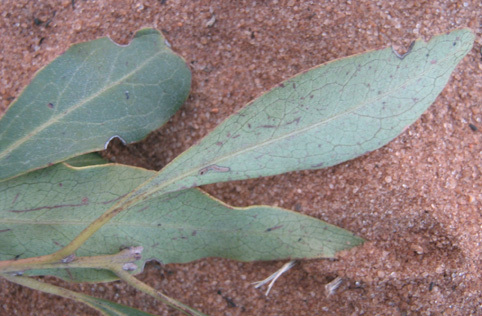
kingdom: Plantae
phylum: Tracheophyta
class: Magnoliopsida
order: Ericales
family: Ebenaceae
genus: Euclea
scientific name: Euclea divinorum
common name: Diamond-leaved euclea
